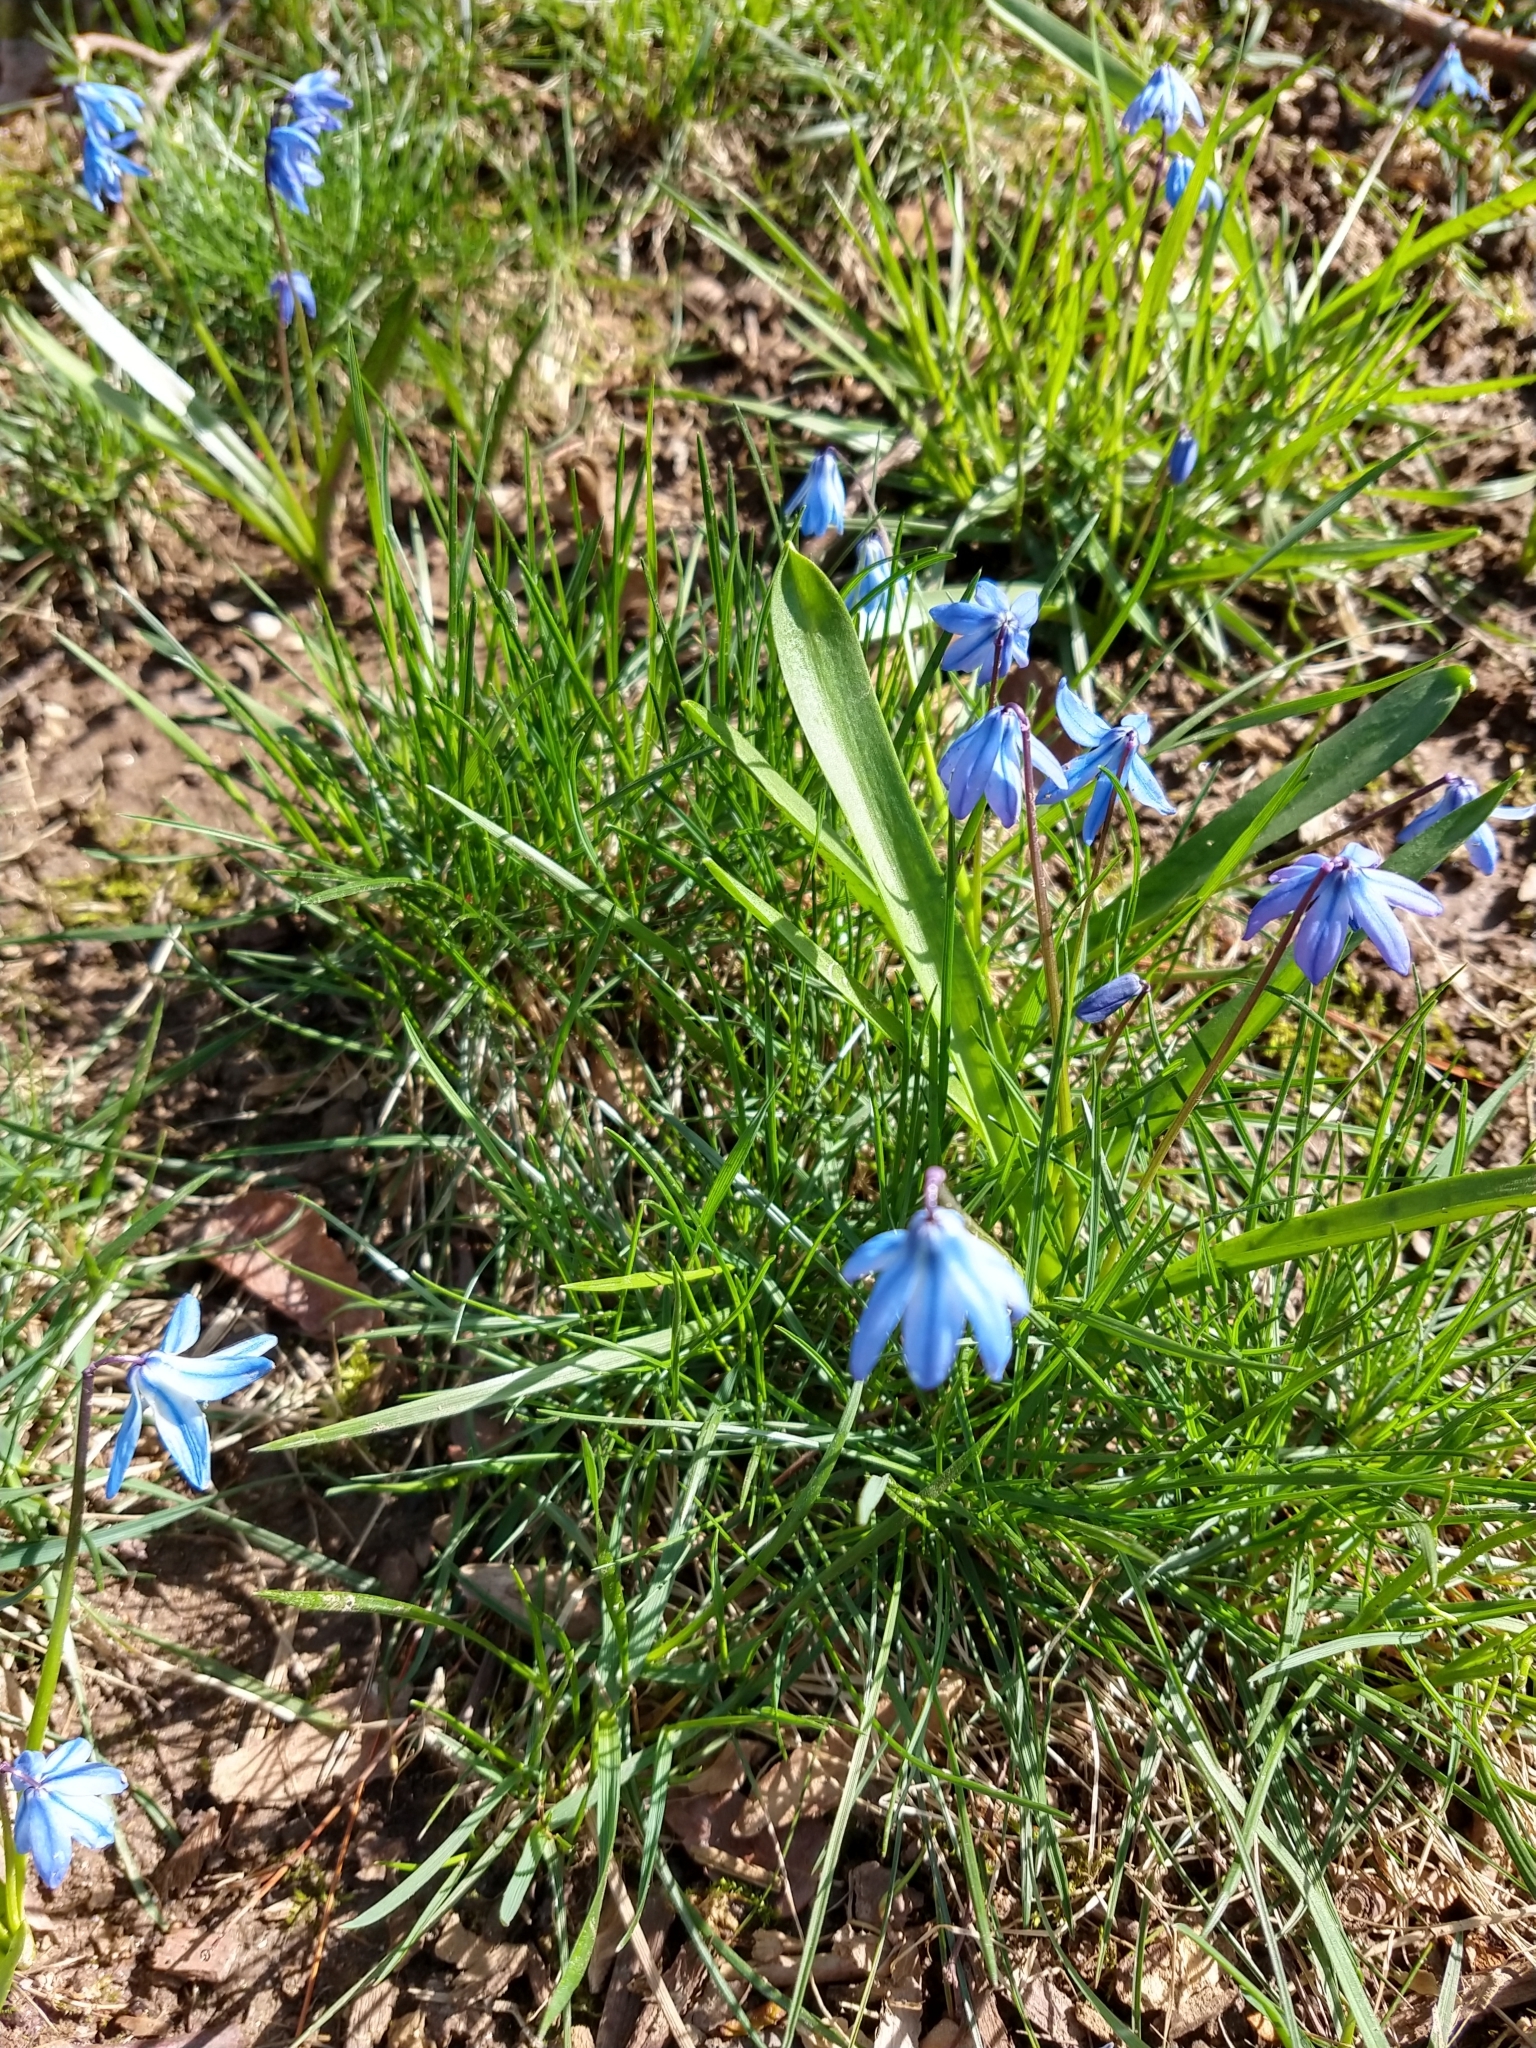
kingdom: Plantae
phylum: Tracheophyta
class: Liliopsida
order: Asparagales
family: Asparagaceae
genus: Scilla
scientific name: Scilla siberica
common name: Siberian squill
